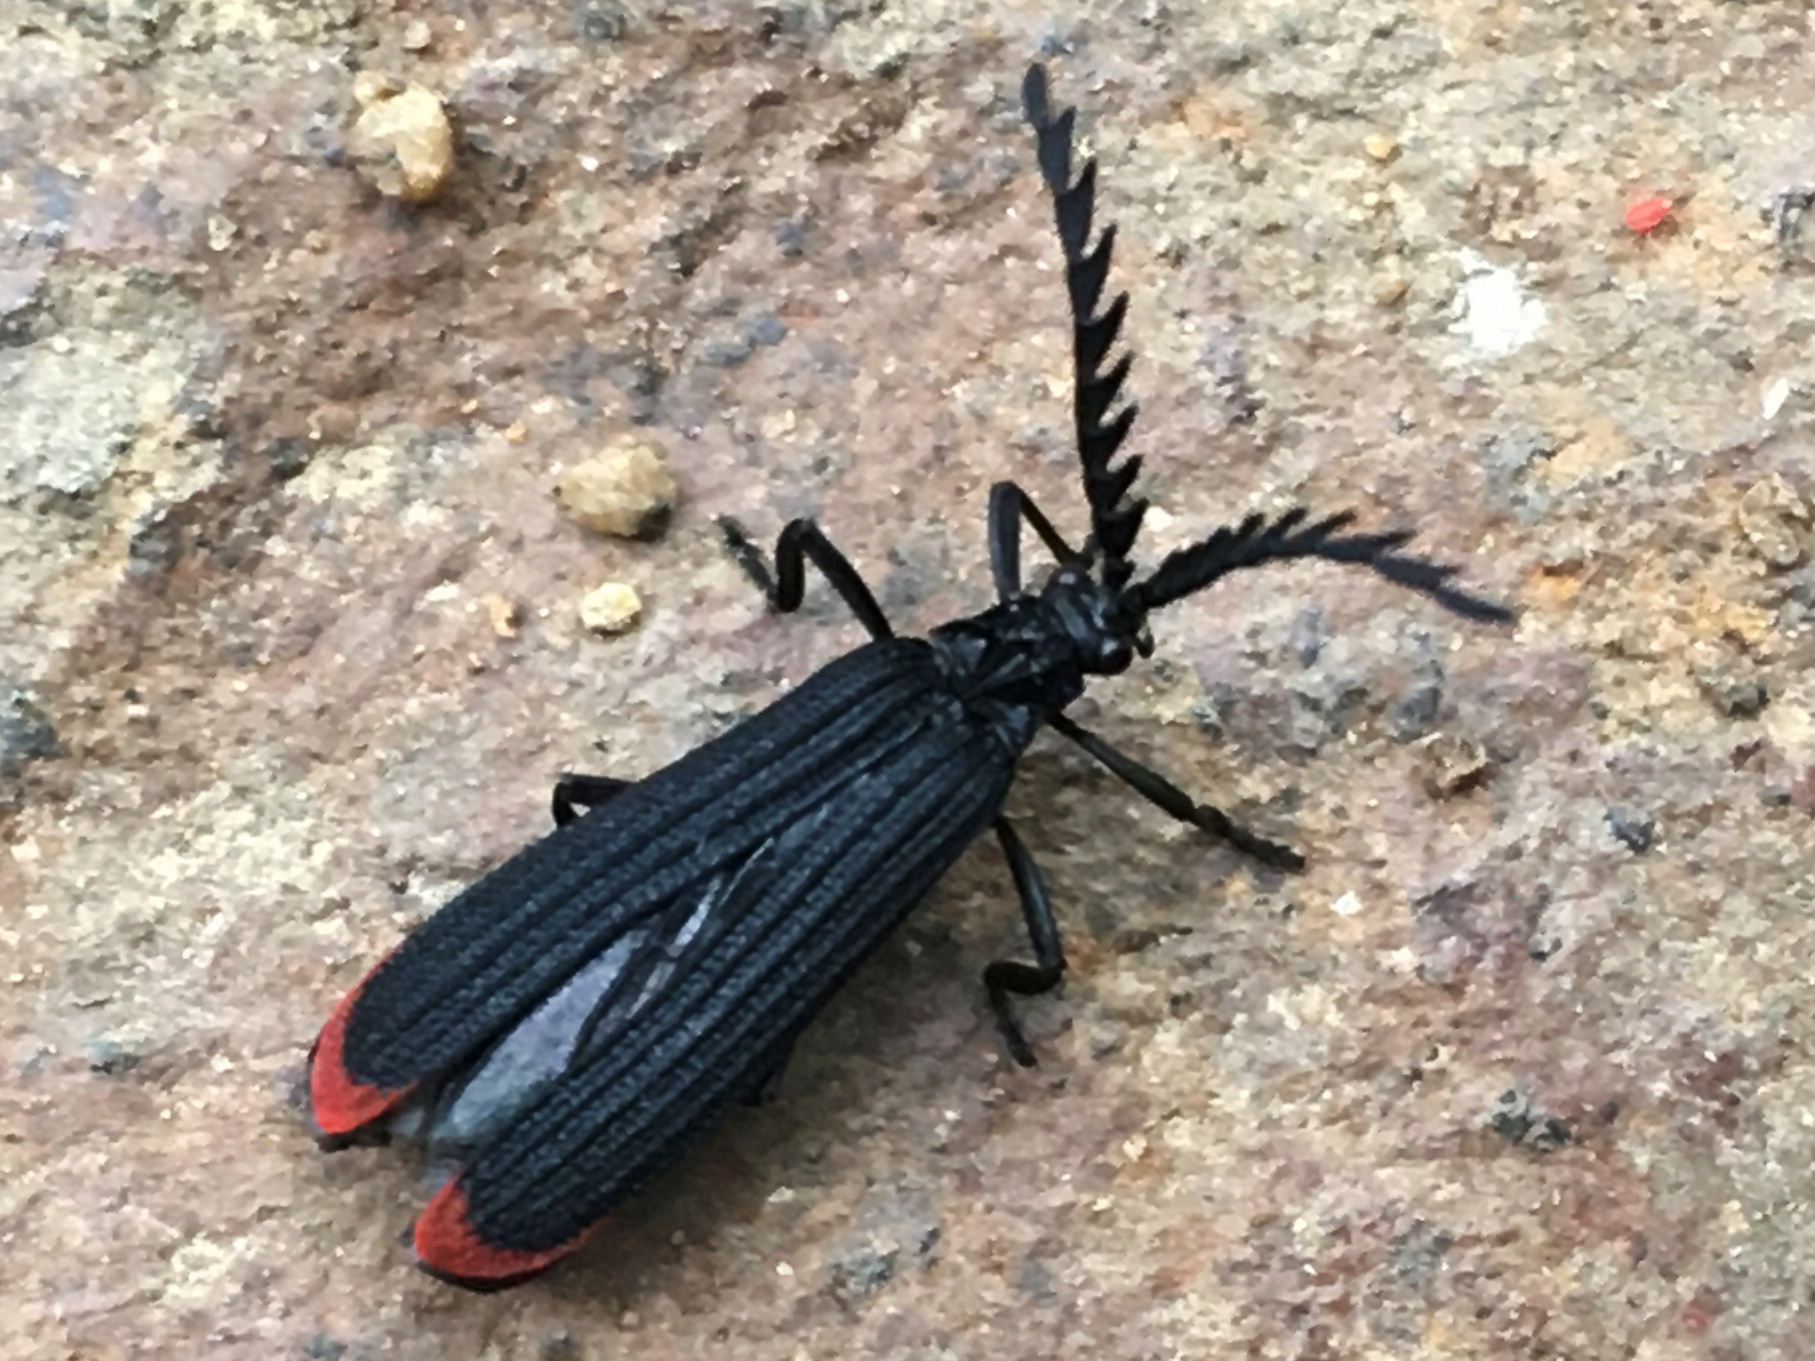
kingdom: Animalia
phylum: Arthropoda
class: Insecta
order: Coleoptera
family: Lycidae
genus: Porrostoma
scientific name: Porrostoma rufipenne
